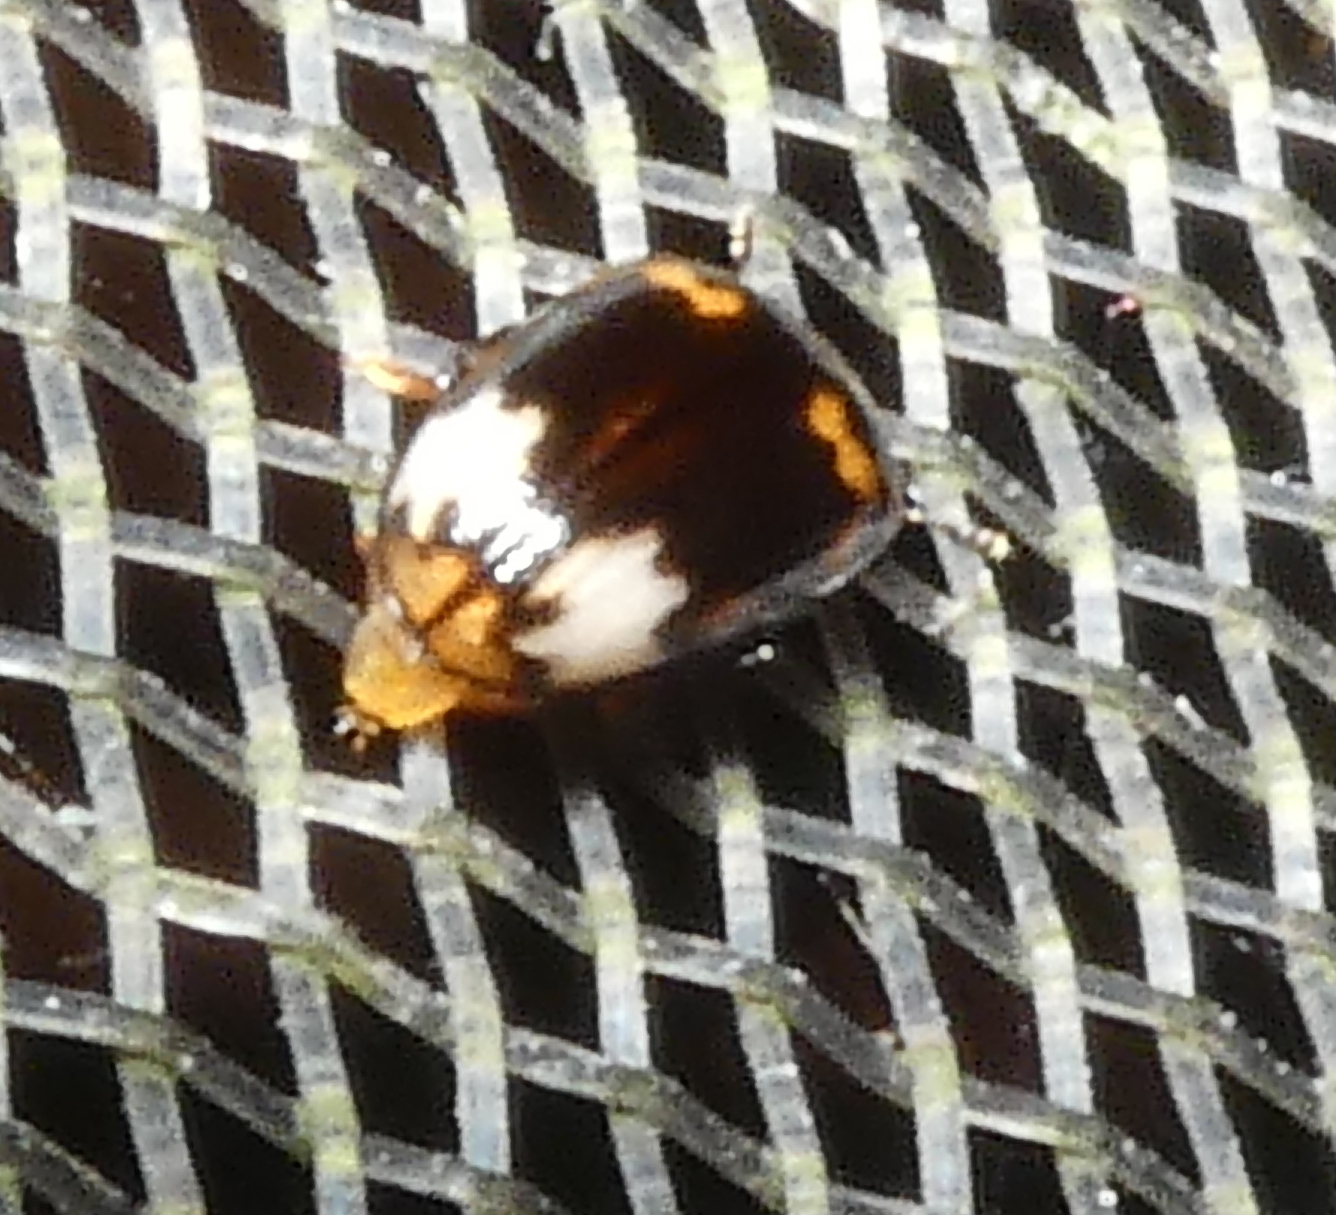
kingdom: Animalia
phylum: Arthropoda
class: Insecta
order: Coleoptera
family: Erotylidae
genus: Ischyrus
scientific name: Ischyrus
